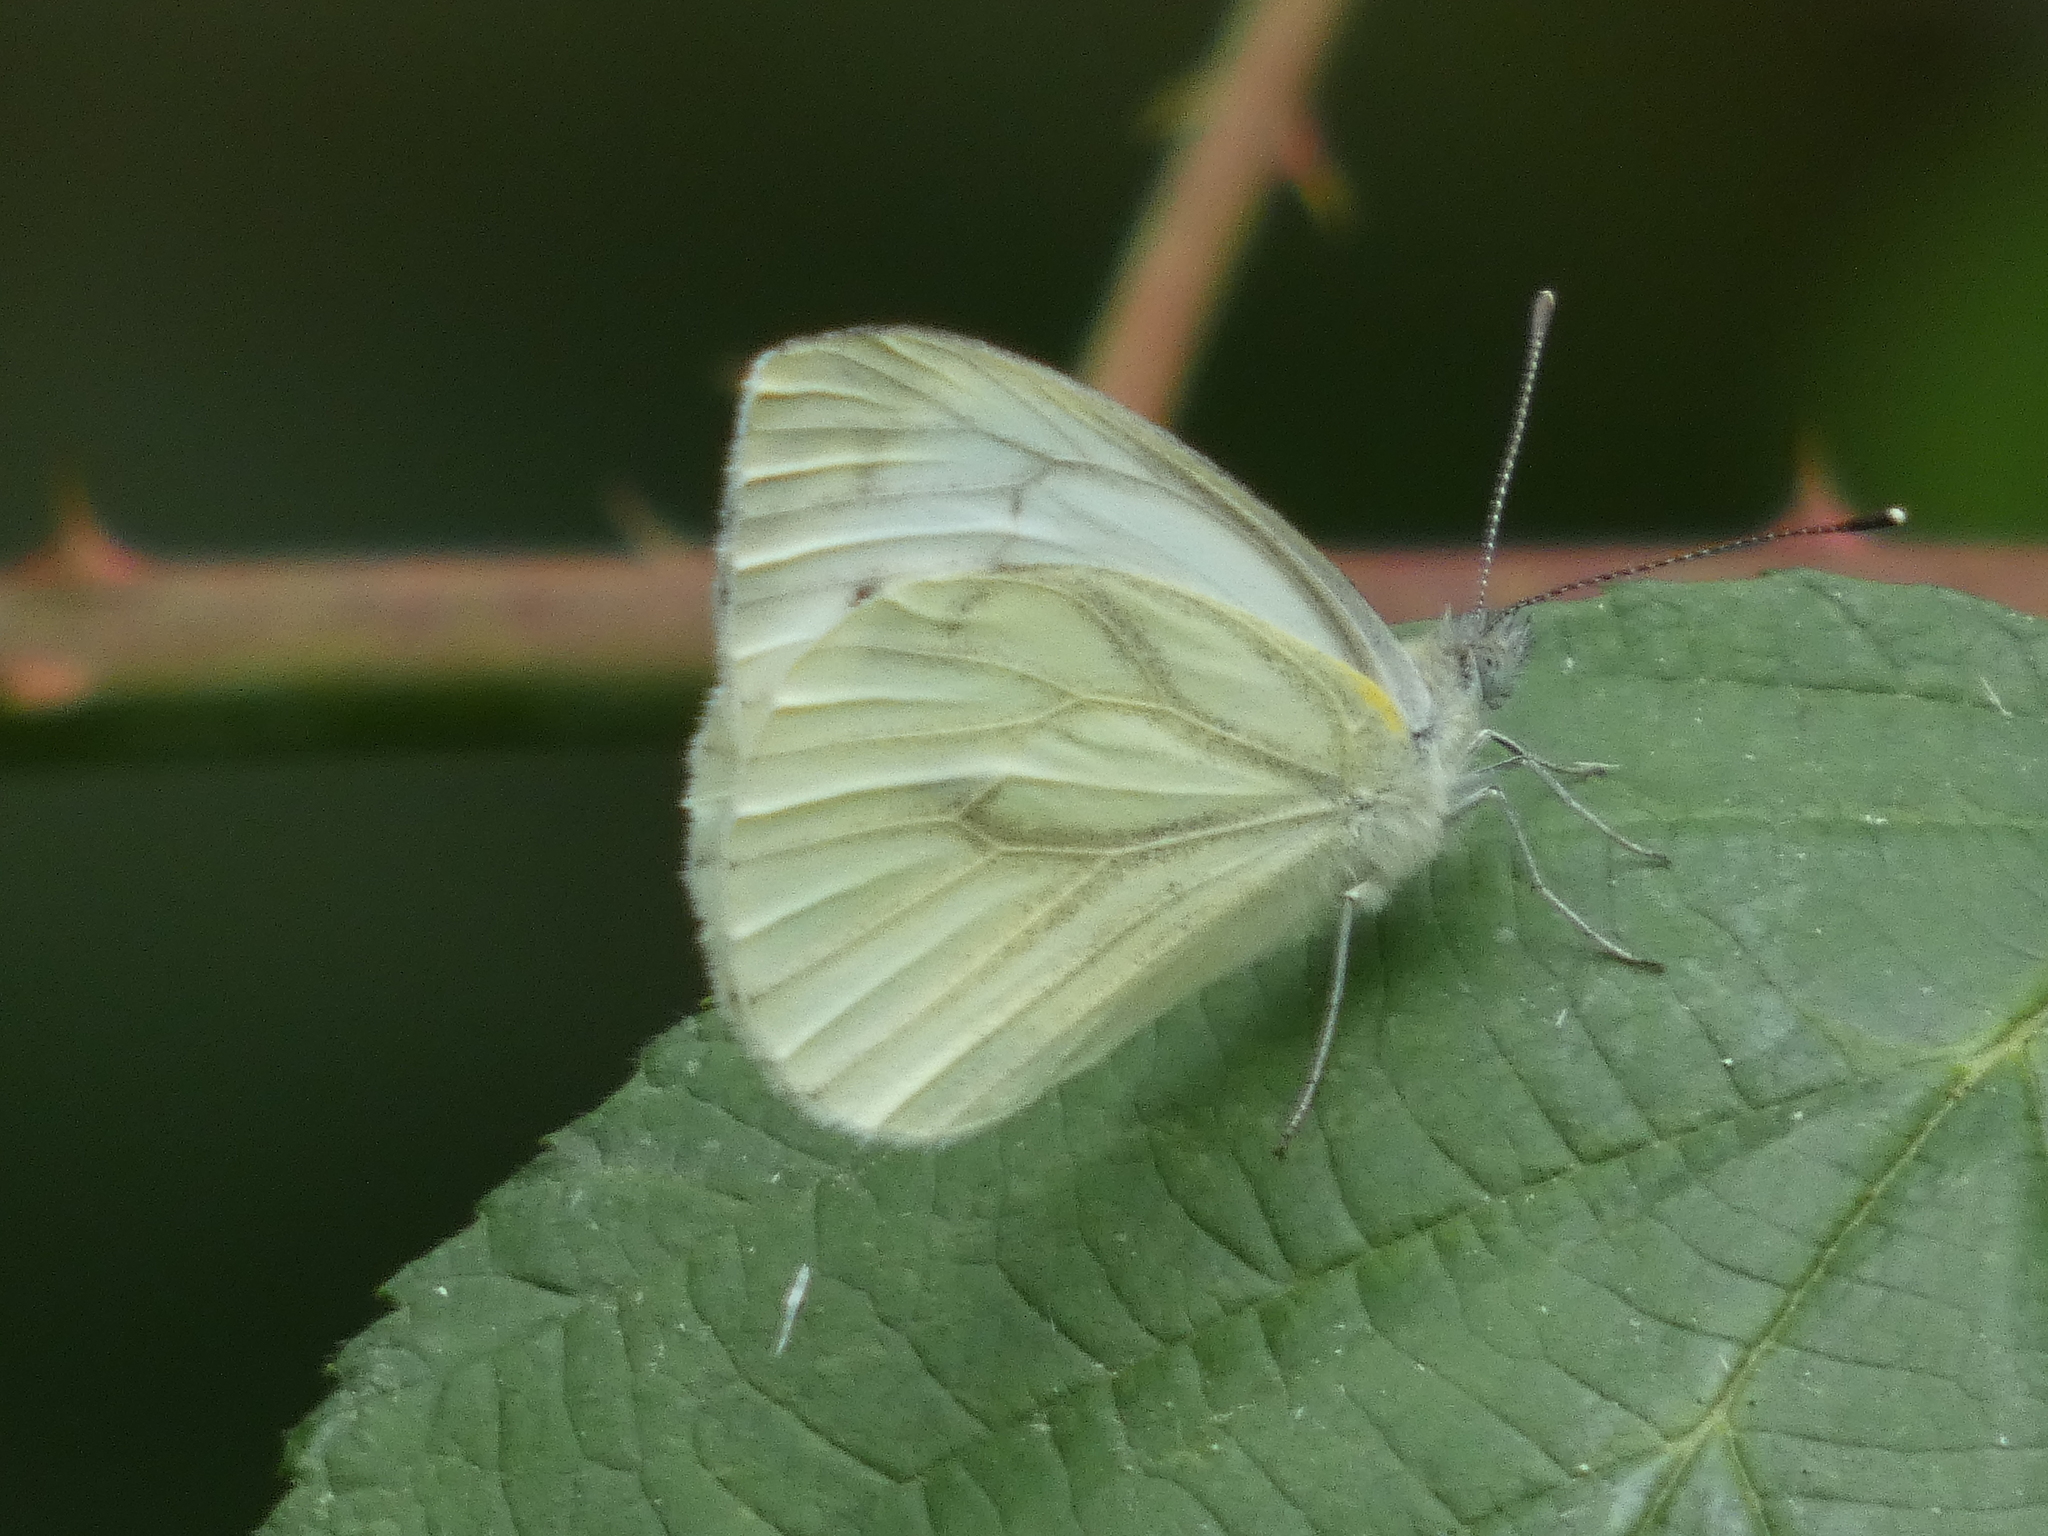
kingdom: Animalia
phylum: Arthropoda
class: Insecta
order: Lepidoptera
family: Pieridae
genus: Pieris
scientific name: Pieris napi
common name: Green-veined white
